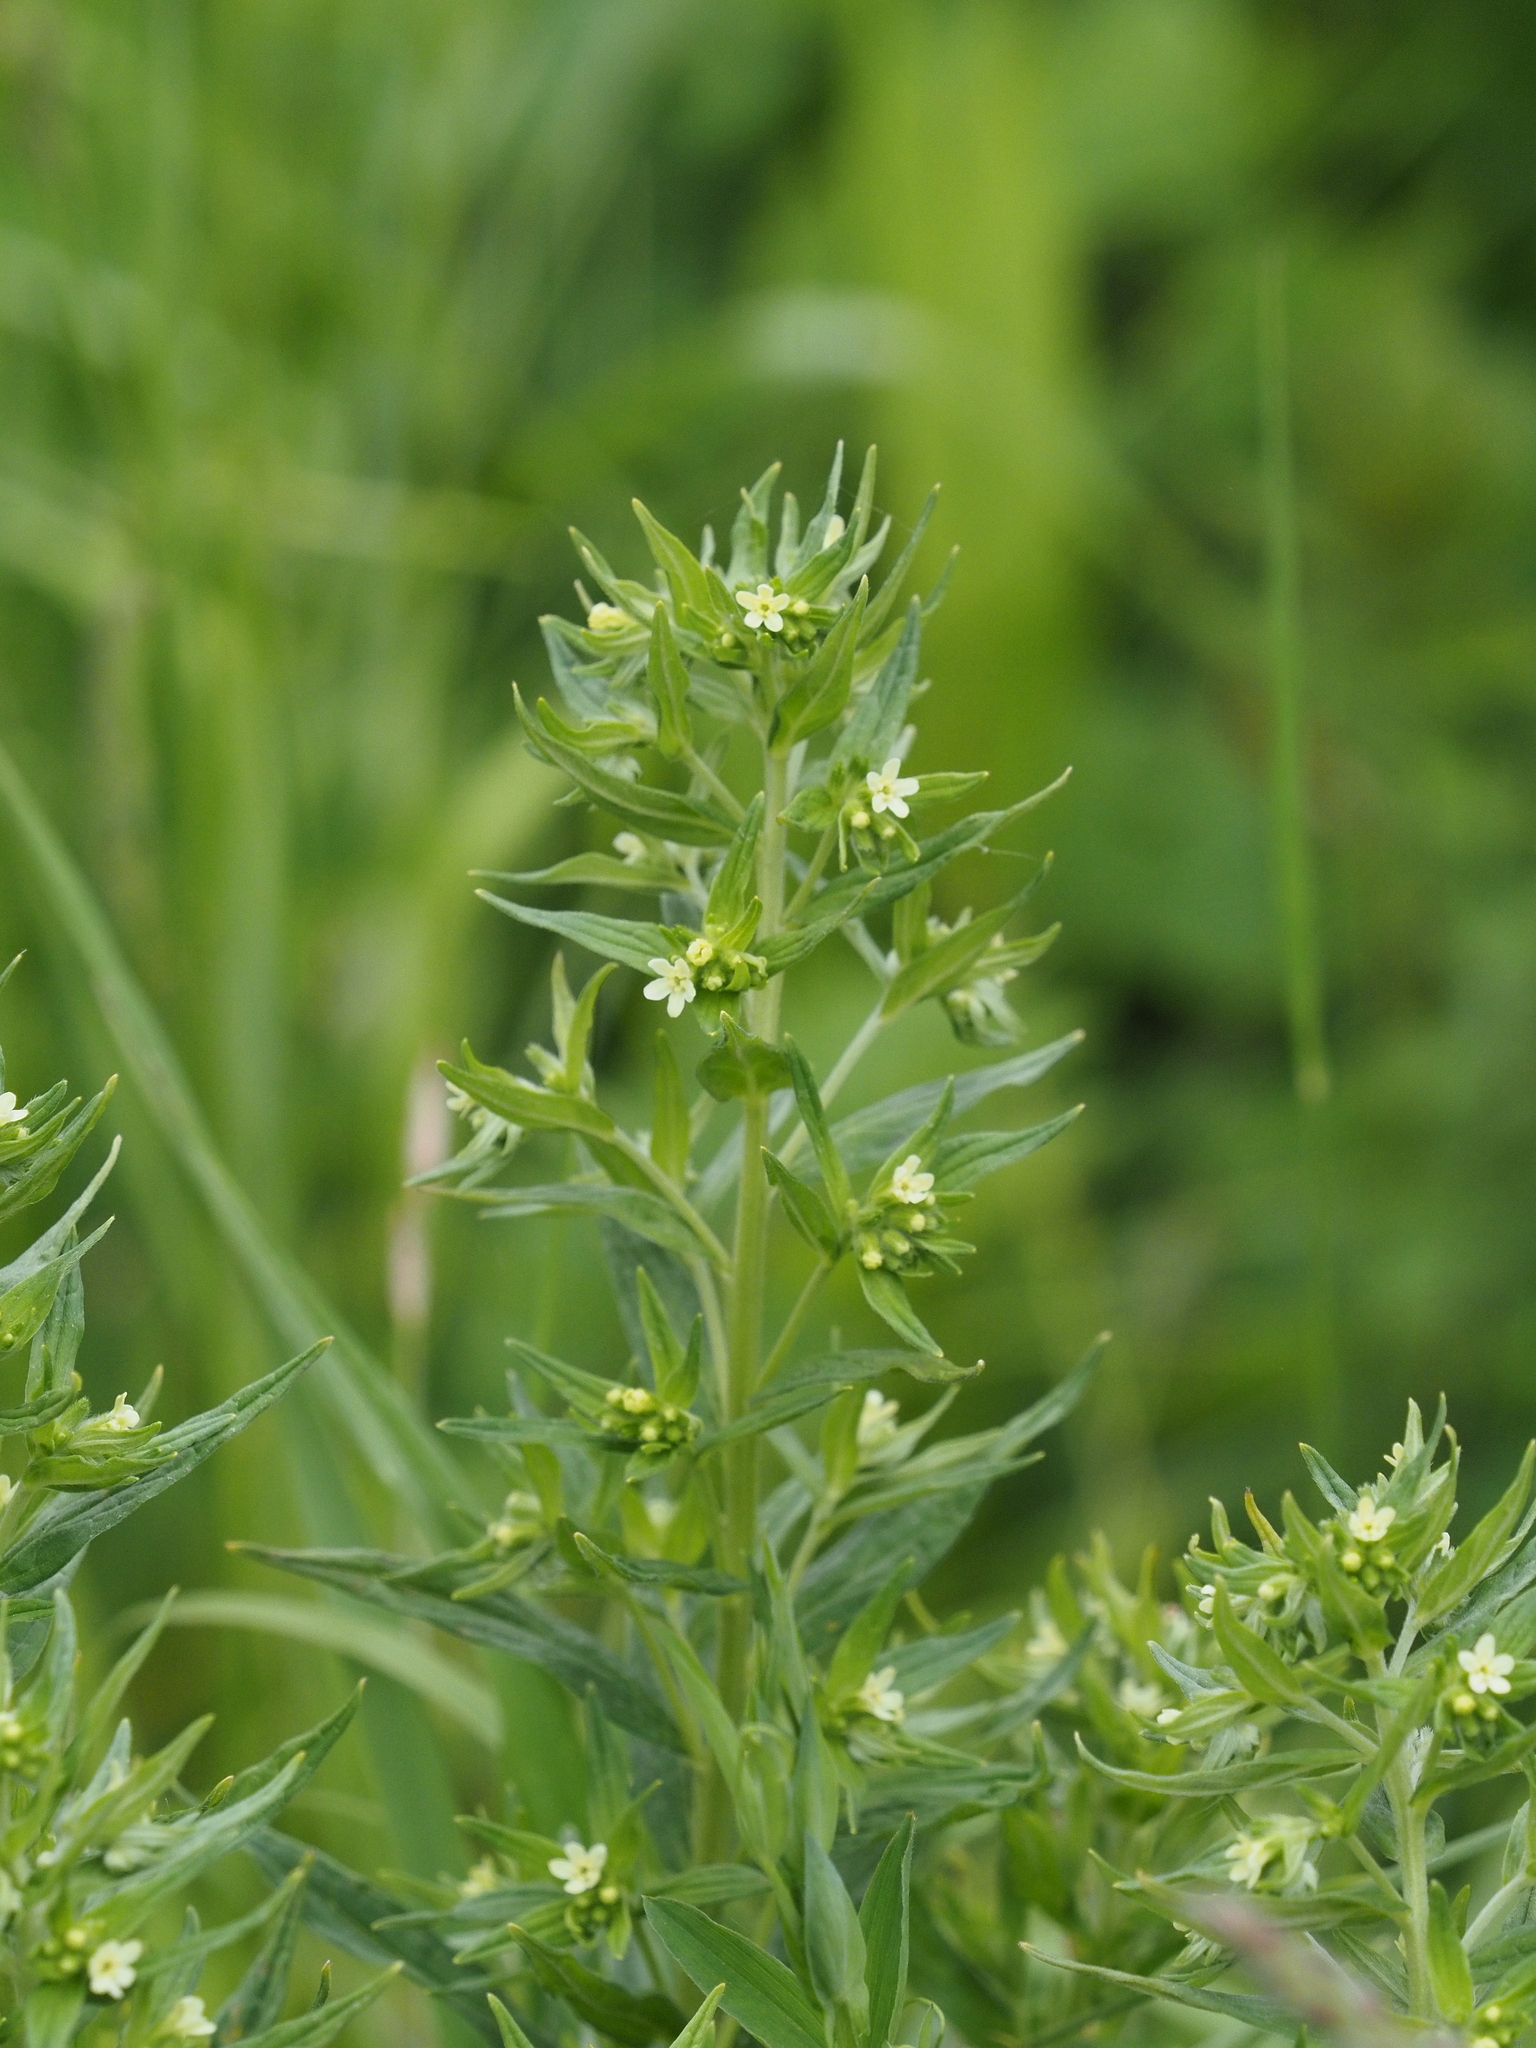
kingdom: Plantae
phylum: Tracheophyta
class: Magnoliopsida
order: Boraginales
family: Boraginaceae
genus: Lithospermum
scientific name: Lithospermum officinale
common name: Common gromwell
